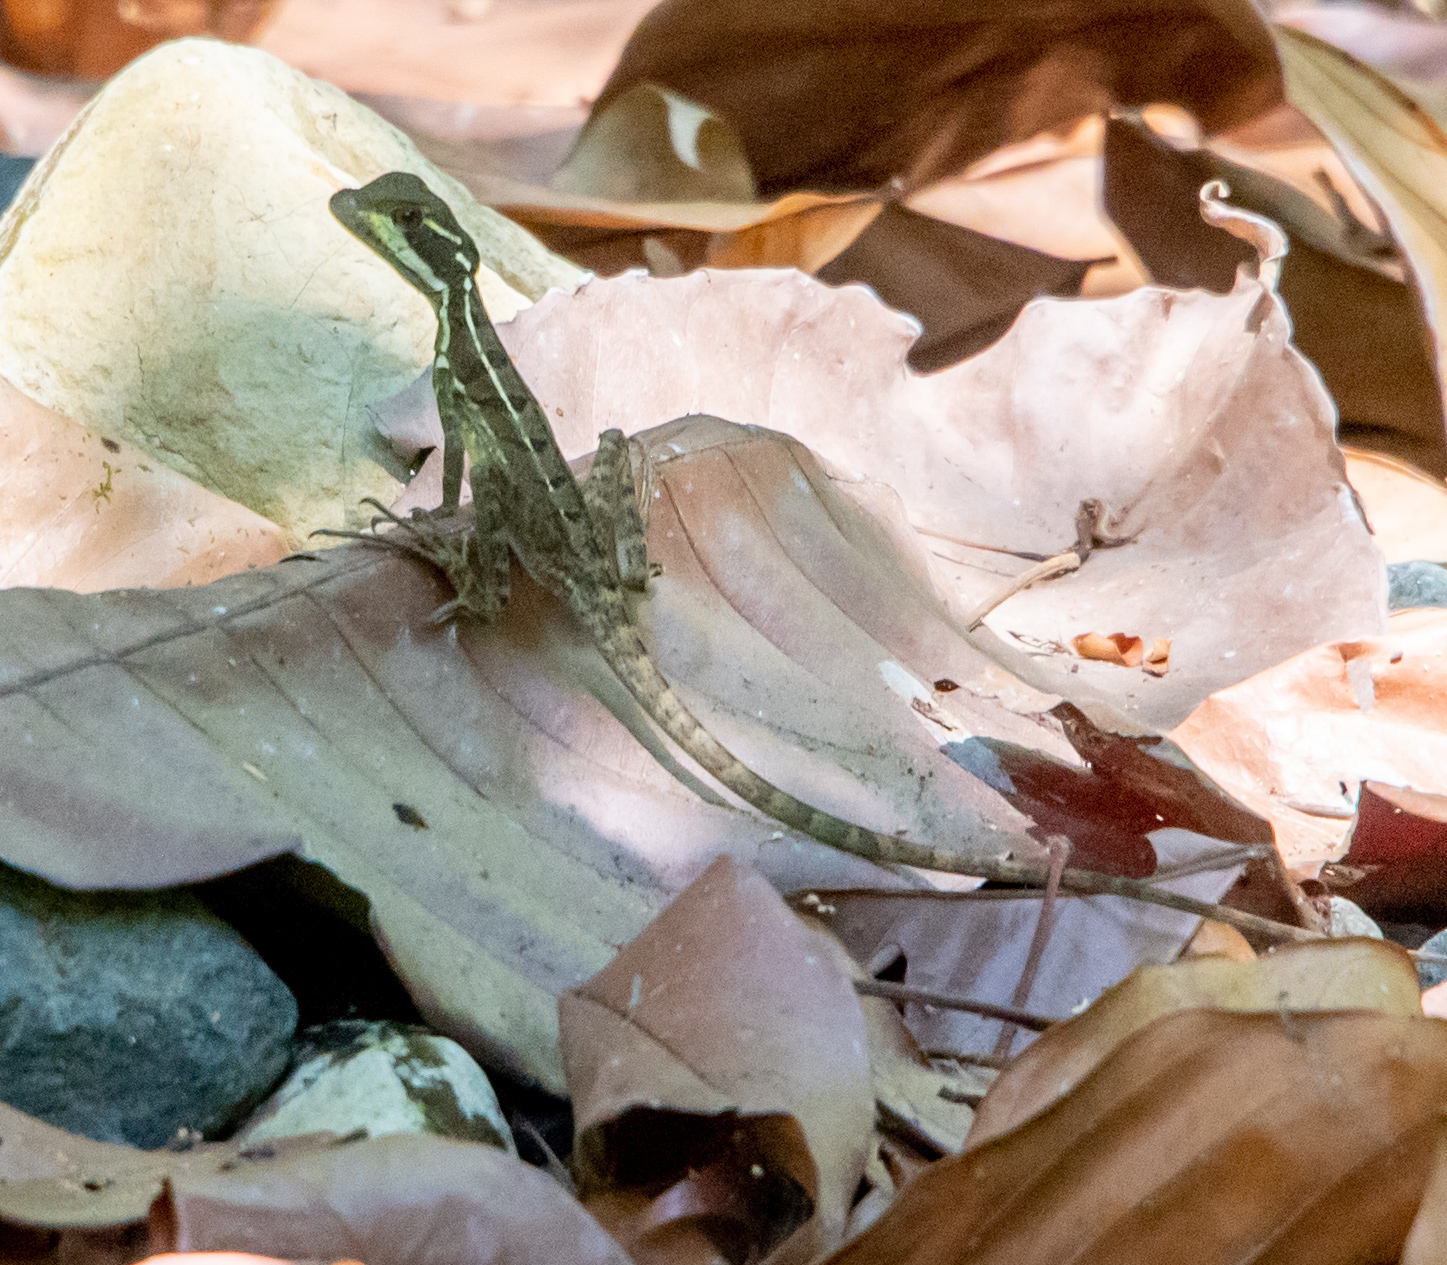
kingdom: Animalia
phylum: Chordata
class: Squamata
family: Corytophanidae
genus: Basiliscus
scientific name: Basiliscus basiliscus
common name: Common basilisk
